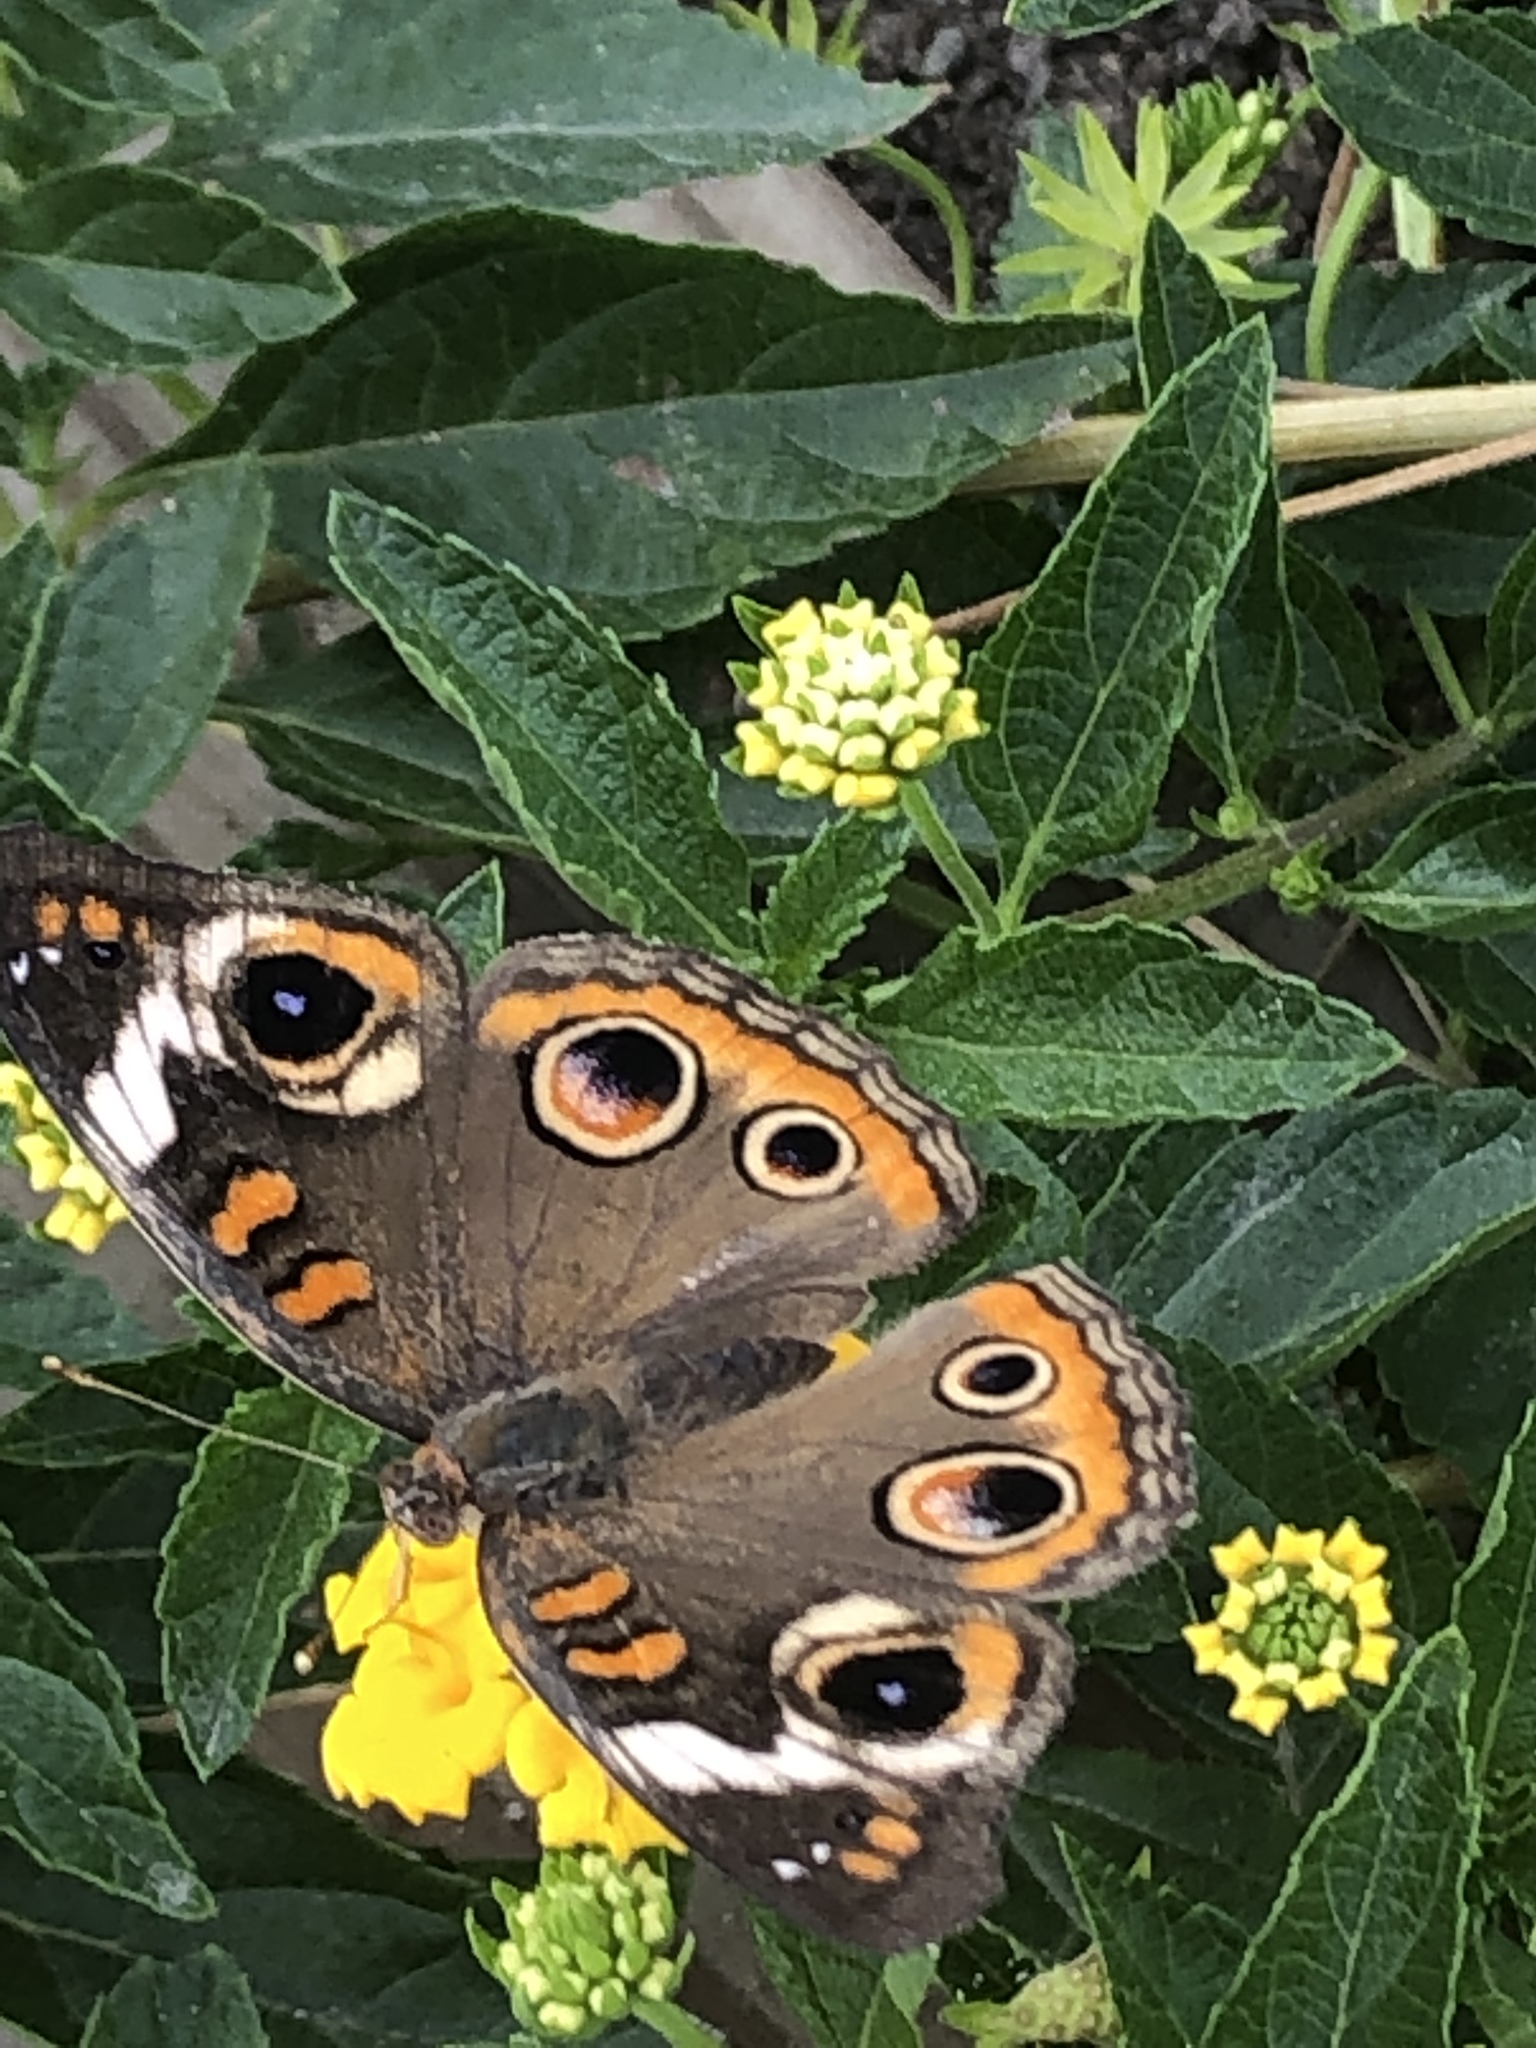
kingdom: Animalia
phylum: Arthropoda
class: Insecta
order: Lepidoptera
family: Nymphalidae
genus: Junonia
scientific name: Junonia coenia
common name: Common buckeye
